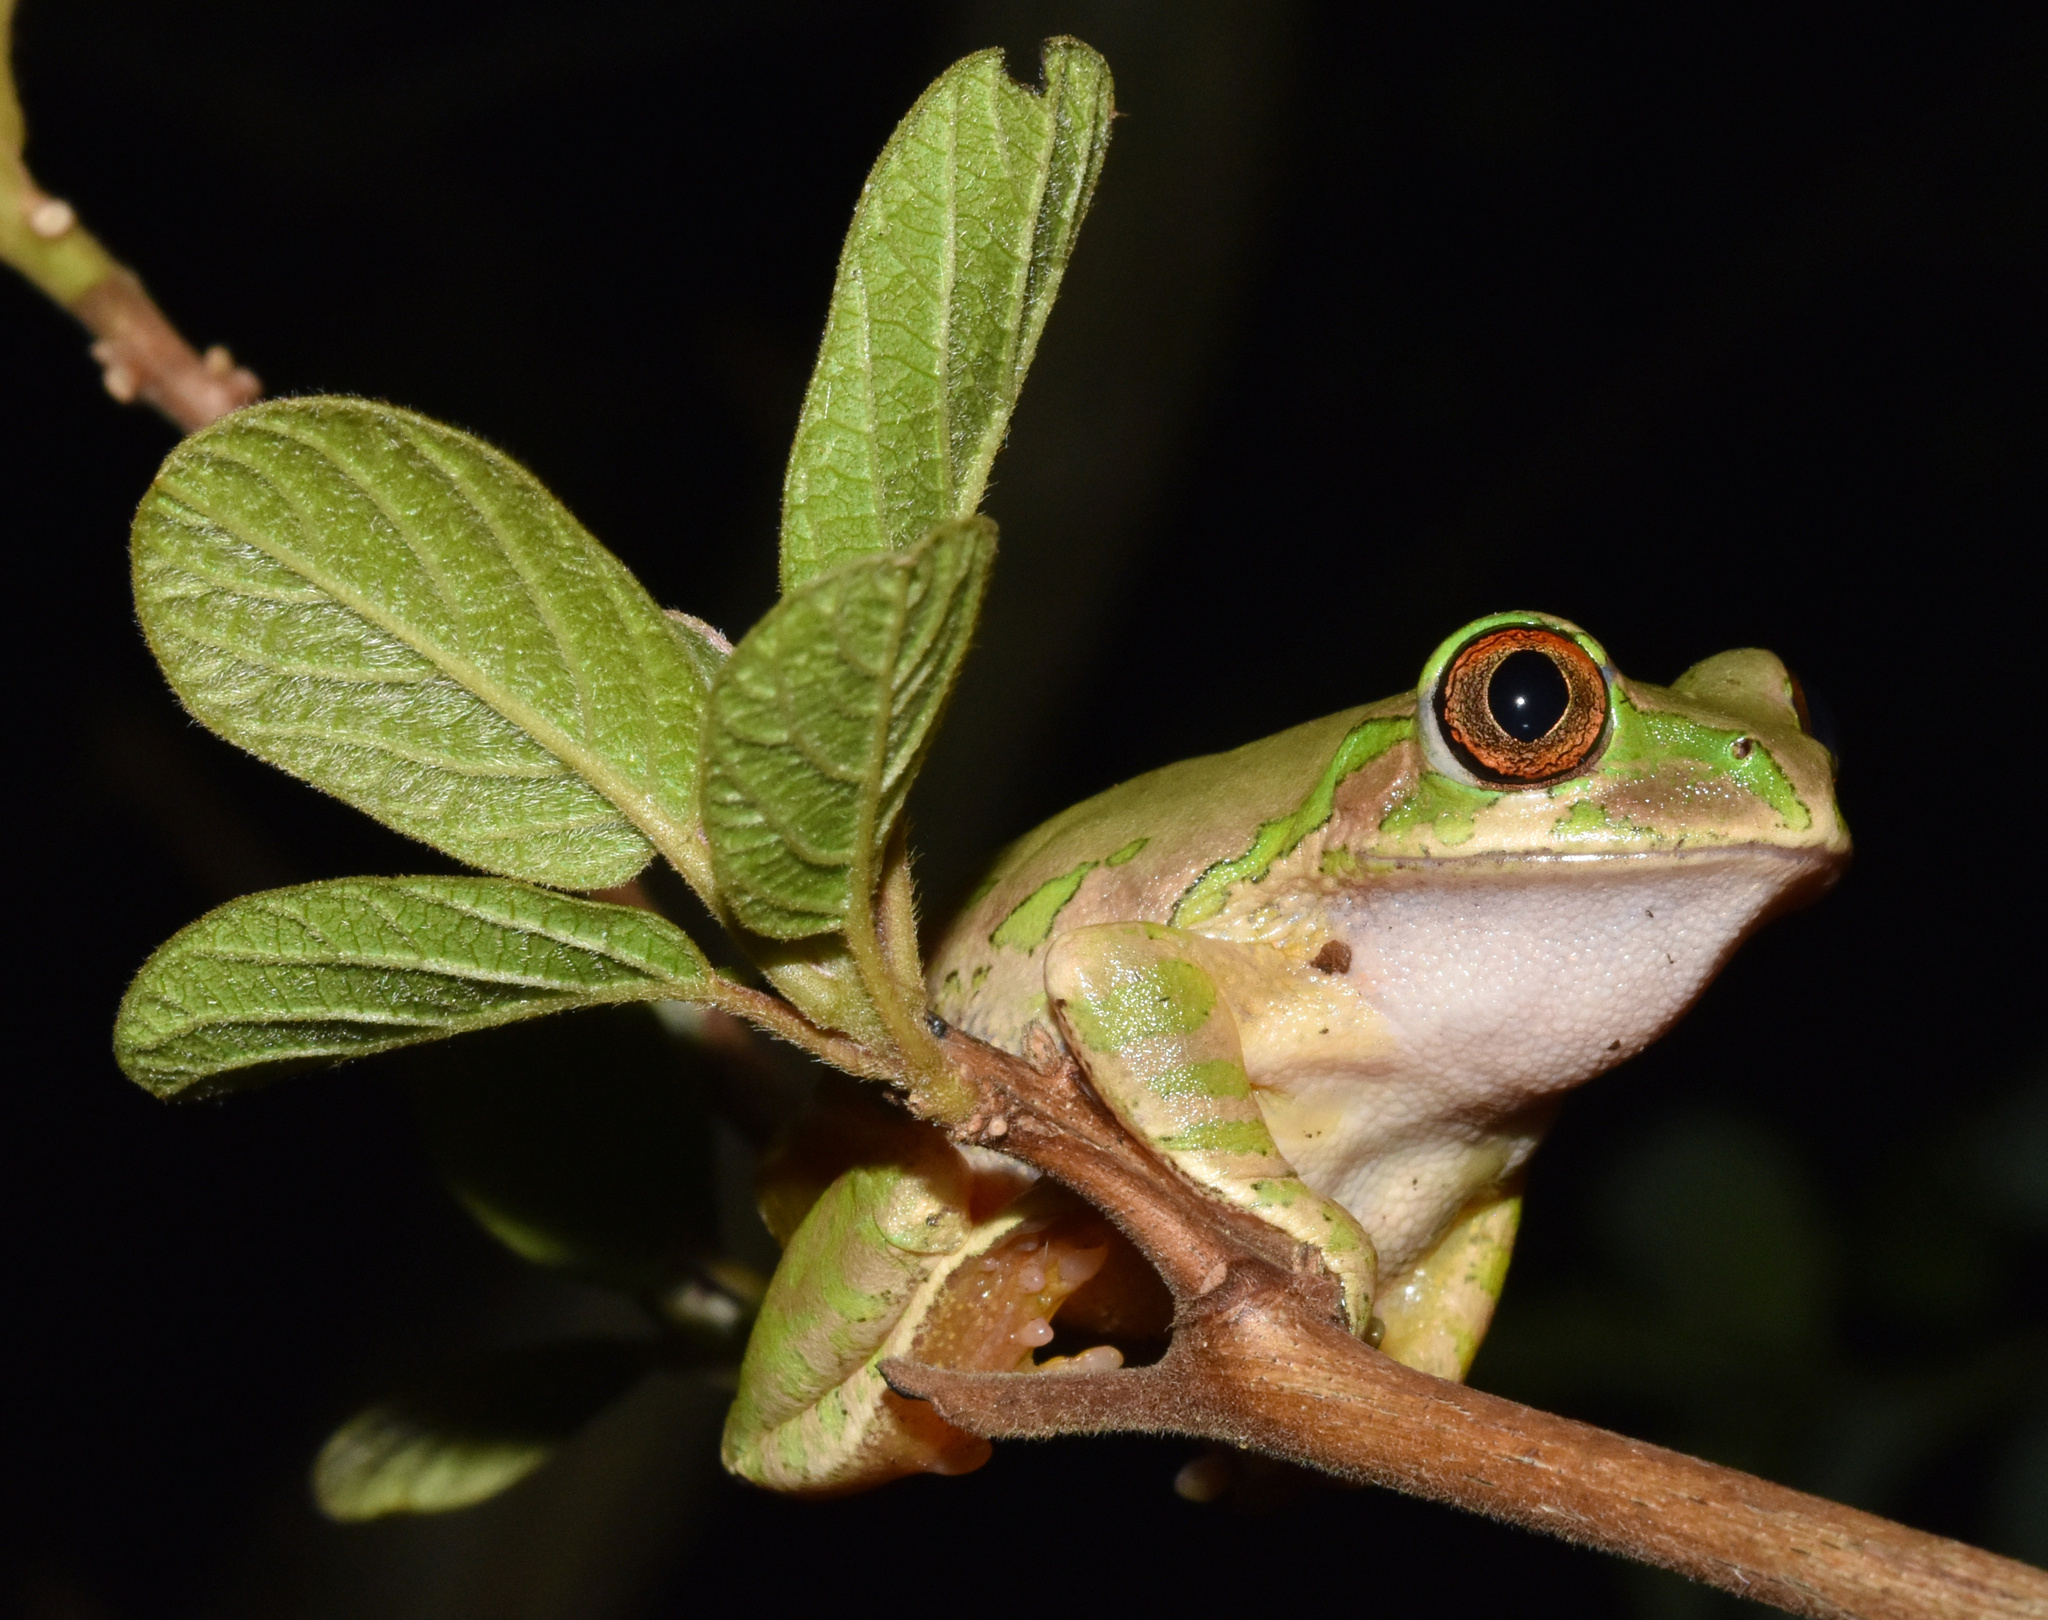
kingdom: Animalia
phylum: Chordata
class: Amphibia
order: Anura
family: Arthroleptidae
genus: Leptopelis
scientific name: Leptopelis natalensis
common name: Natal tree frog
